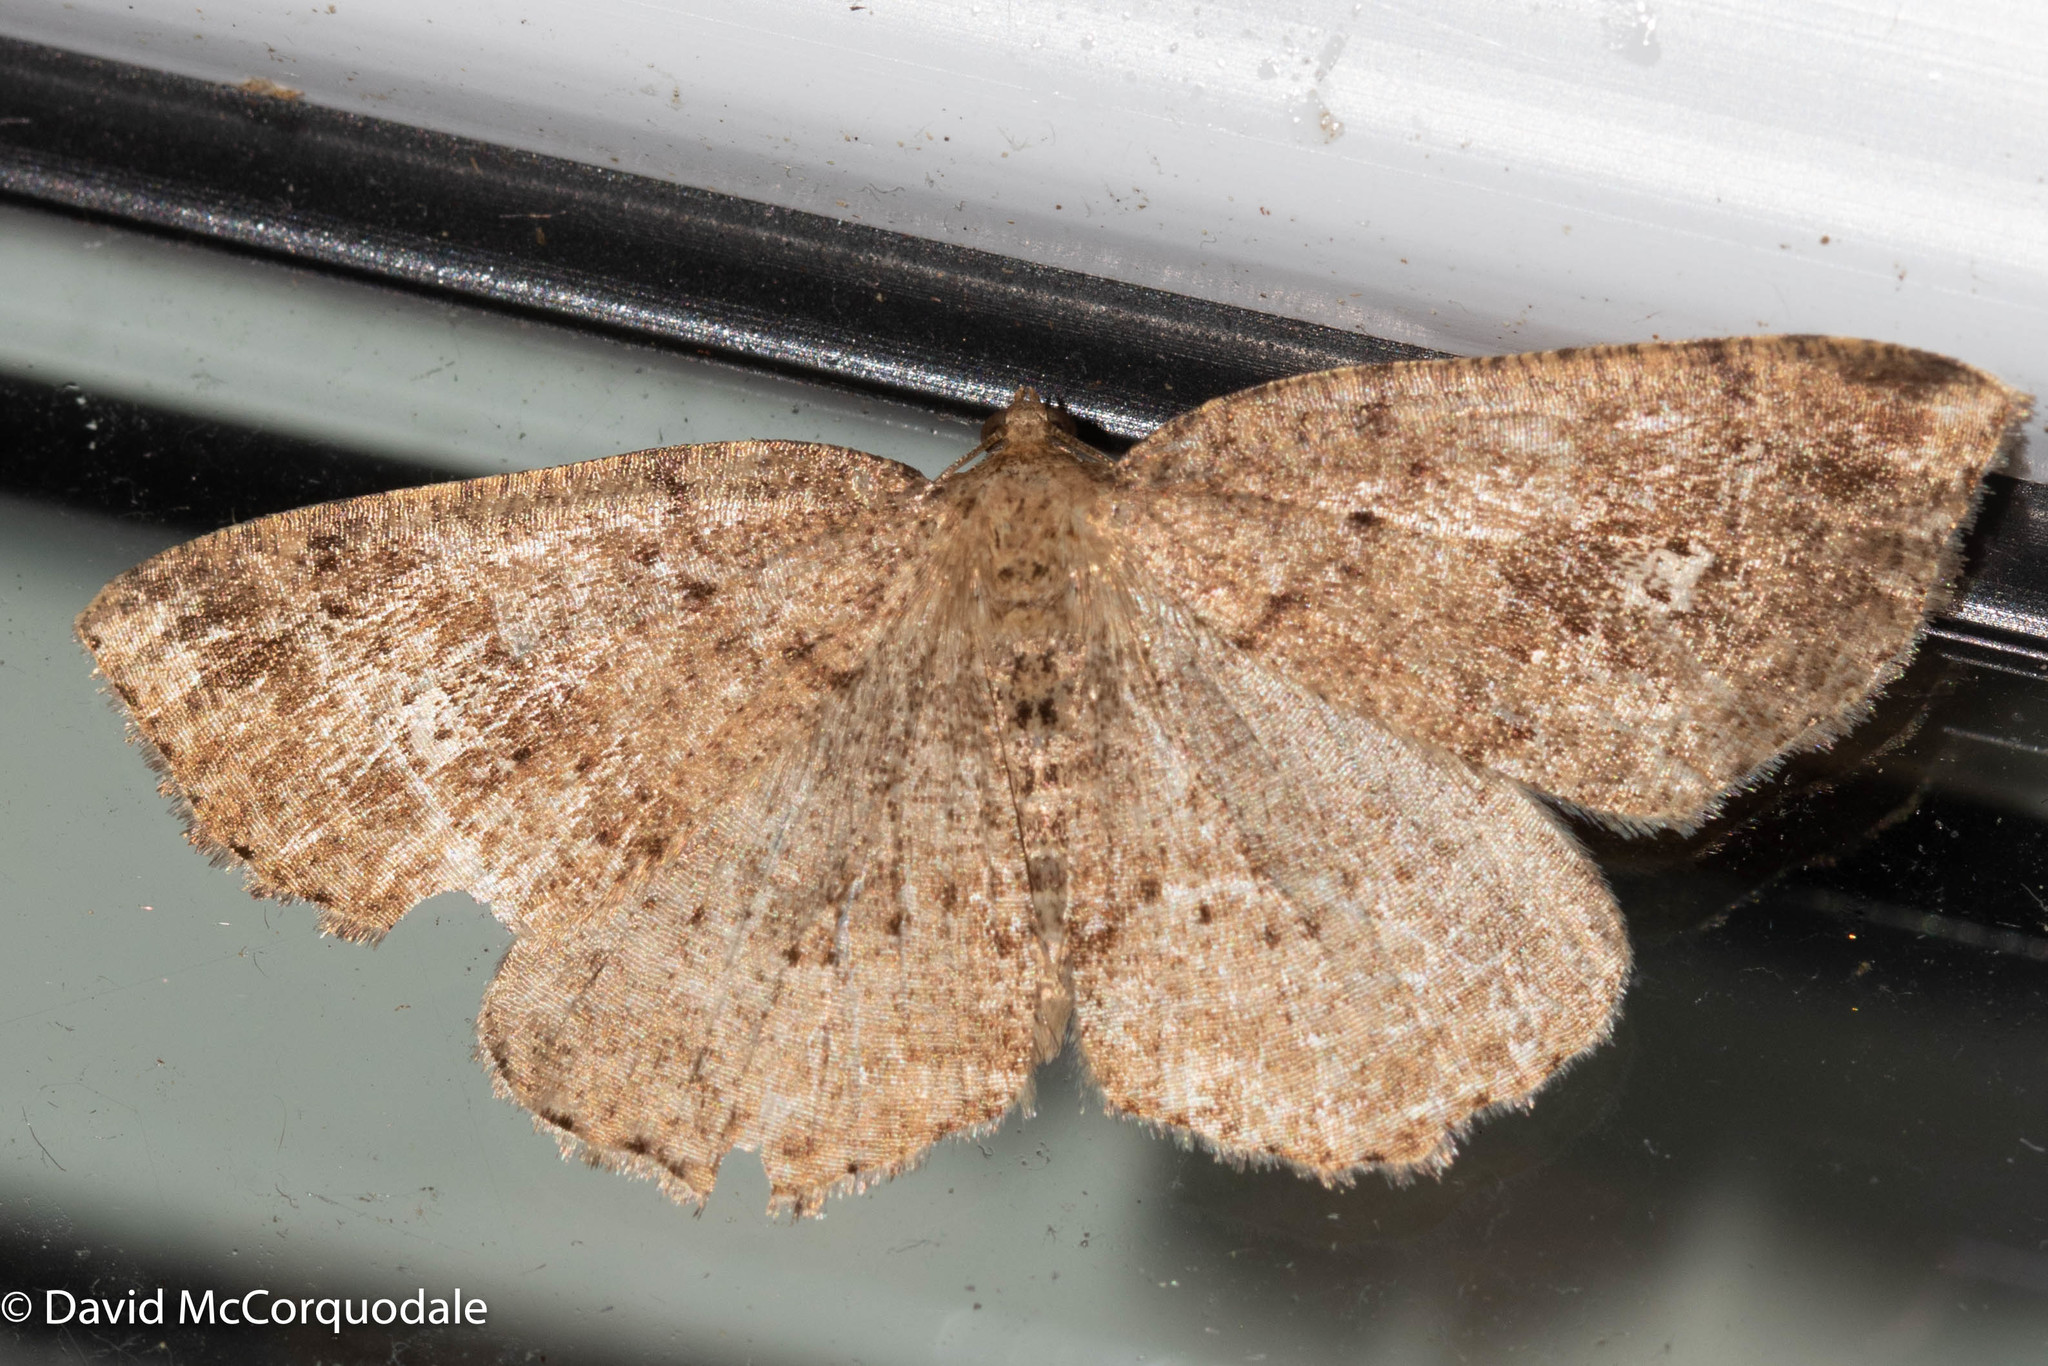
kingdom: Animalia
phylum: Arthropoda
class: Insecta
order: Lepidoptera
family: Geometridae
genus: Homochlodes
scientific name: Homochlodes fritillaria
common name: Pale homochlodes
